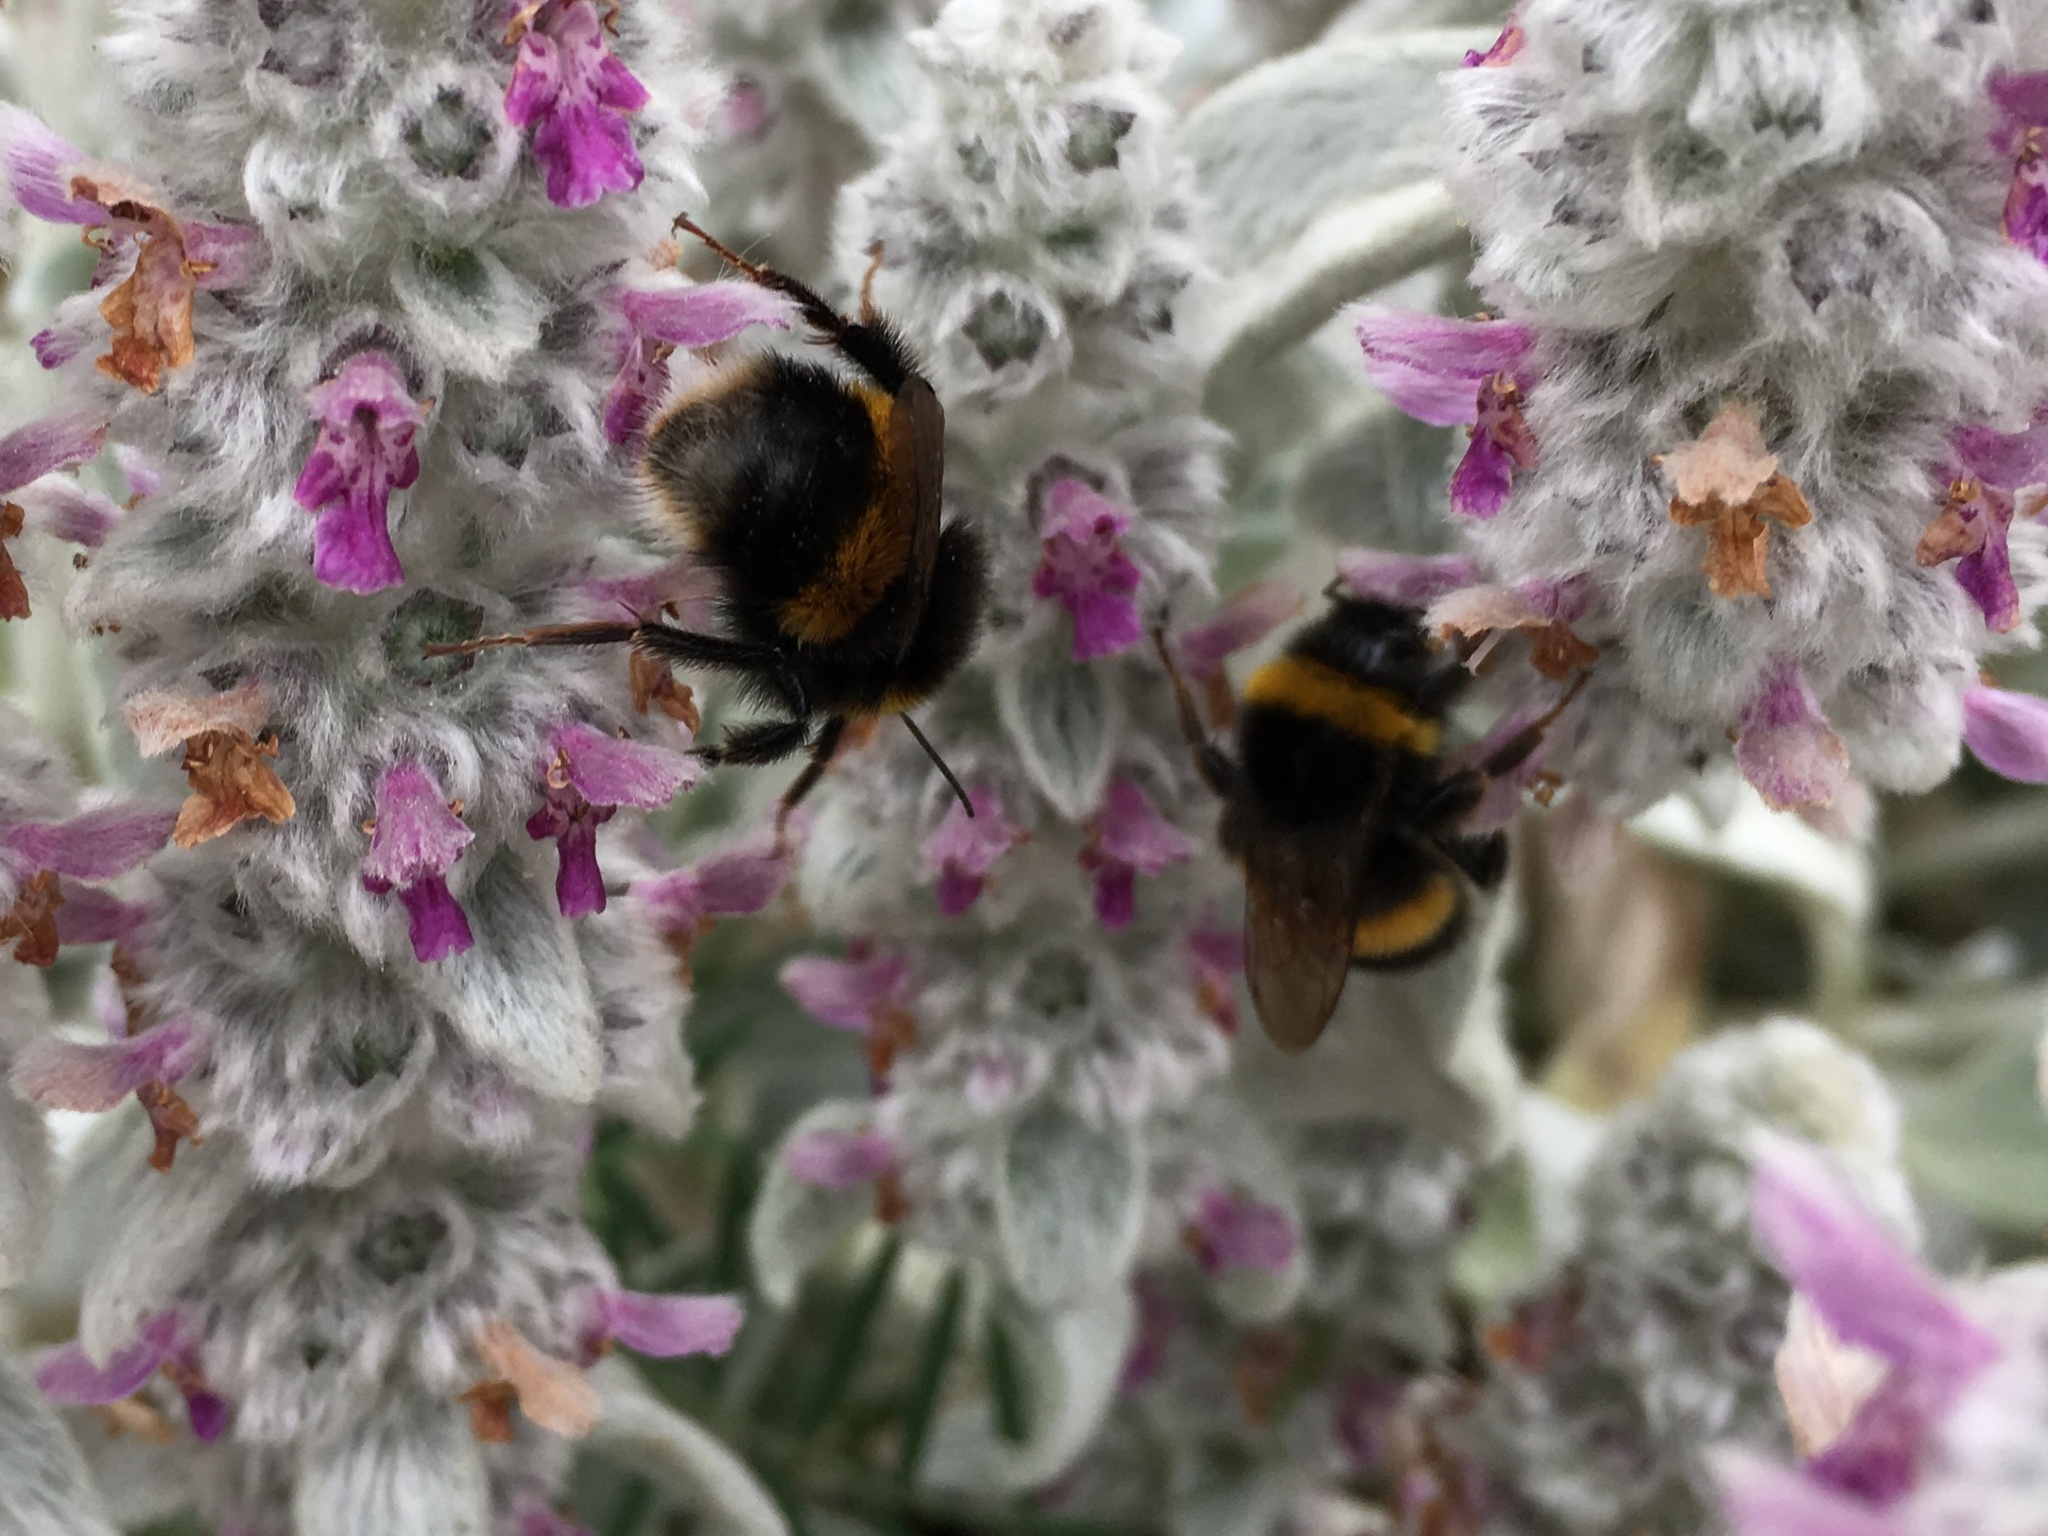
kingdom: Animalia
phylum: Arthropoda
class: Insecta
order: Hymenoptera
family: Apidae
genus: Bombus
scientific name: Bombus terrestris
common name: Buff-tailed bumblebee
